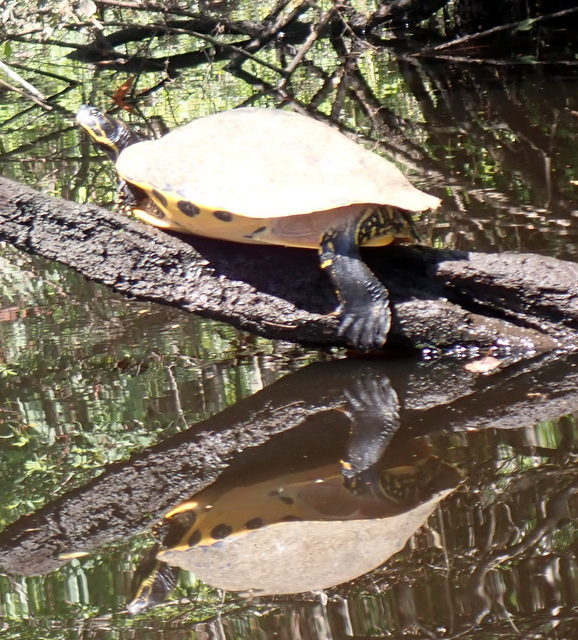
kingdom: Animalia
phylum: Chordata
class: Testudines
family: Emydidae
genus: Pseudemys
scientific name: Pseudemys concinna
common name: Eastern river cooter
